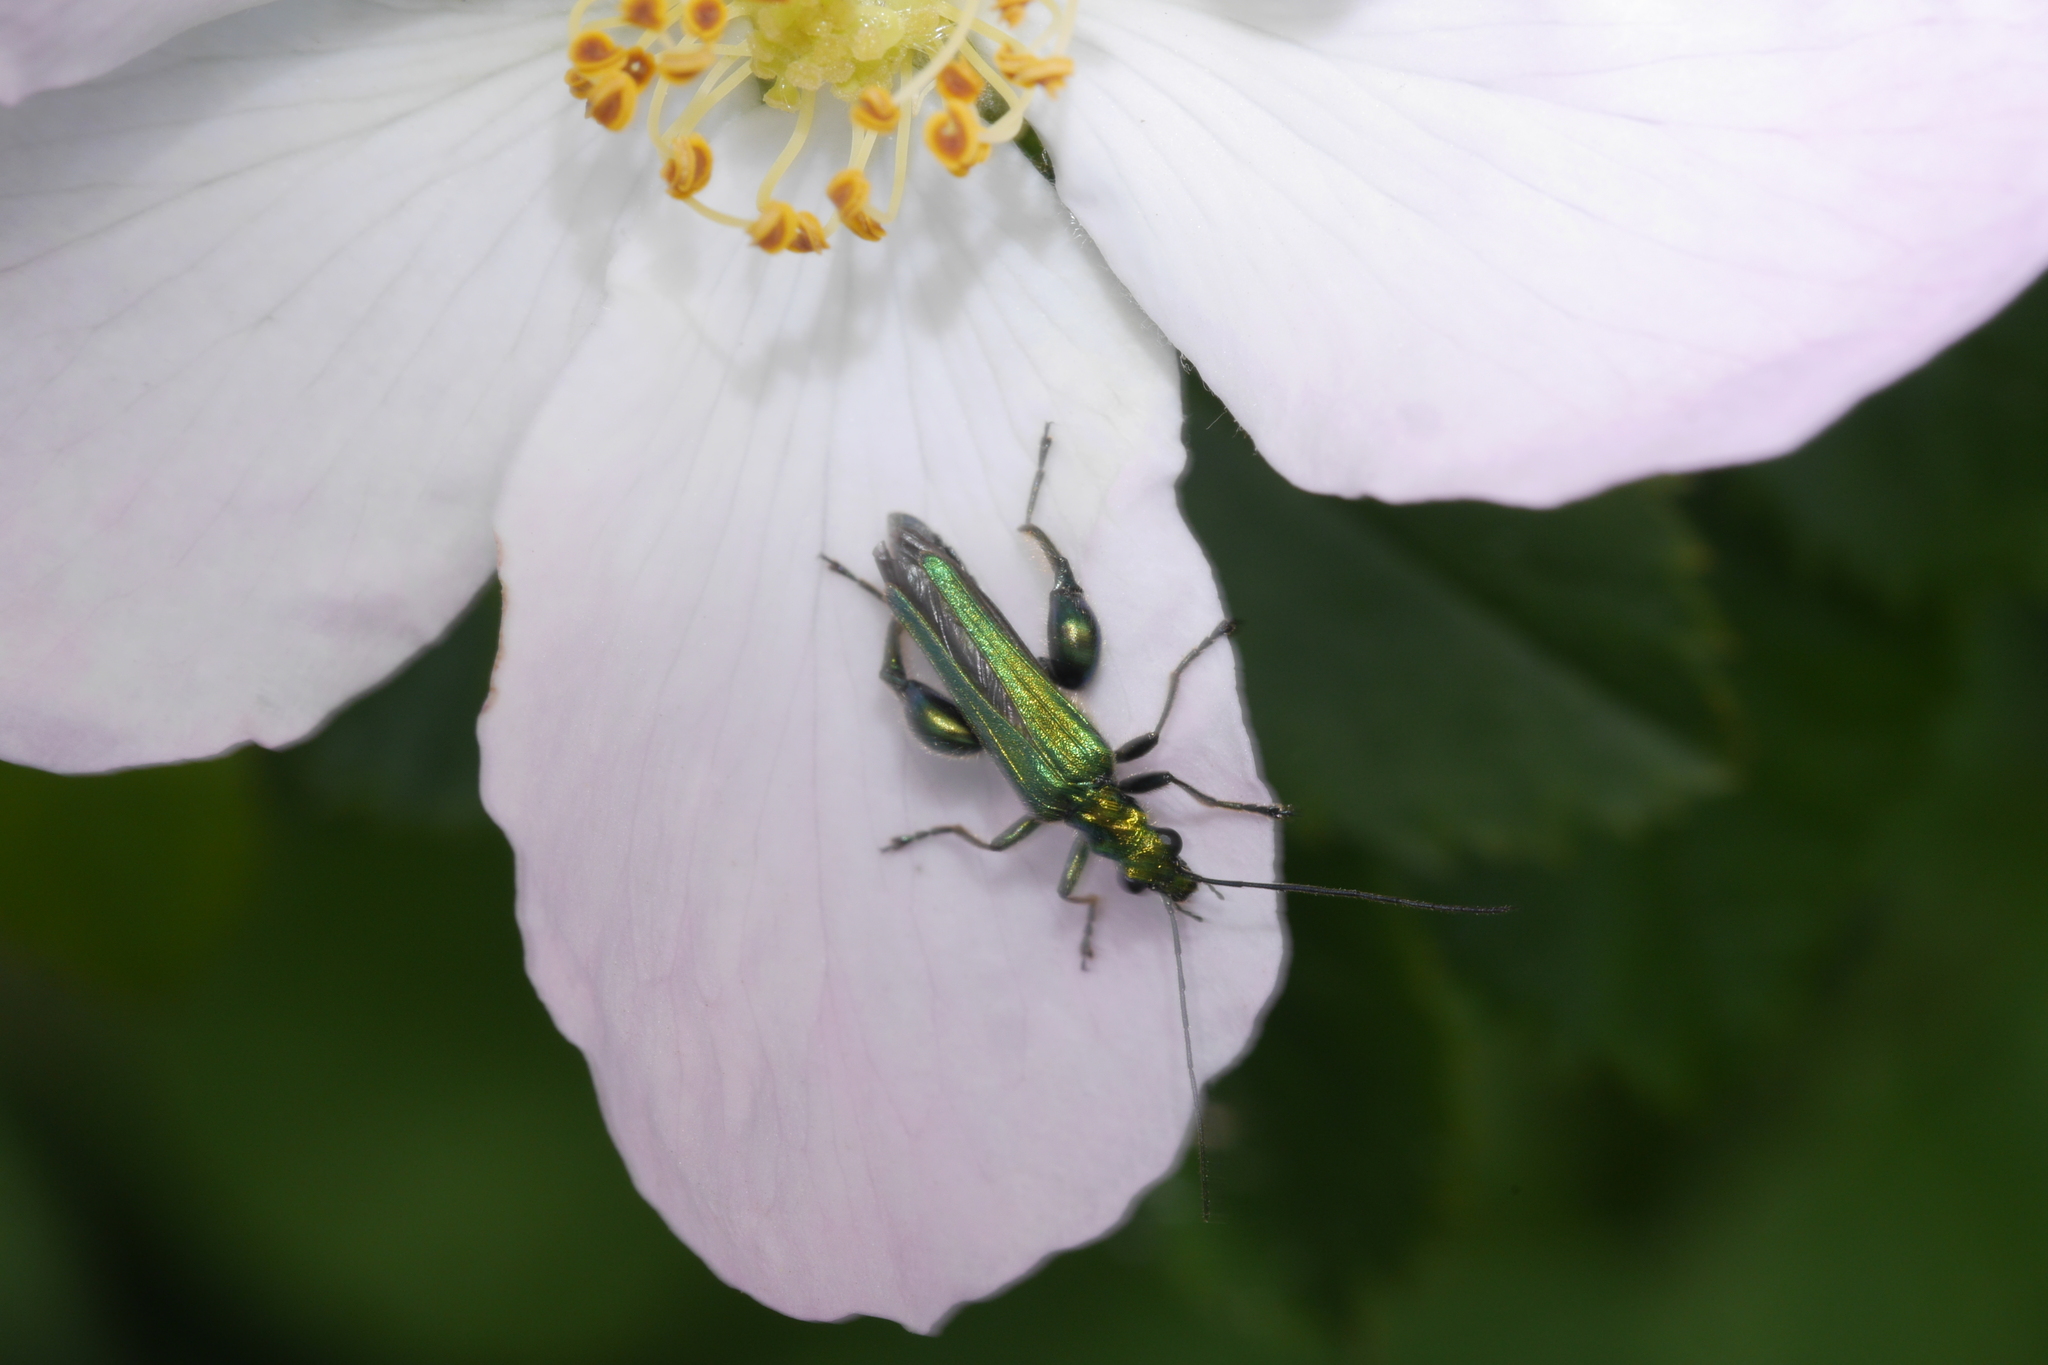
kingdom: Animalia
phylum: Arthropoda
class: Insecta
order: Coleoptera
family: Oedemeridae
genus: Oedemera
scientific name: Oedemera nobilis
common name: Swollen-thighed beetle
